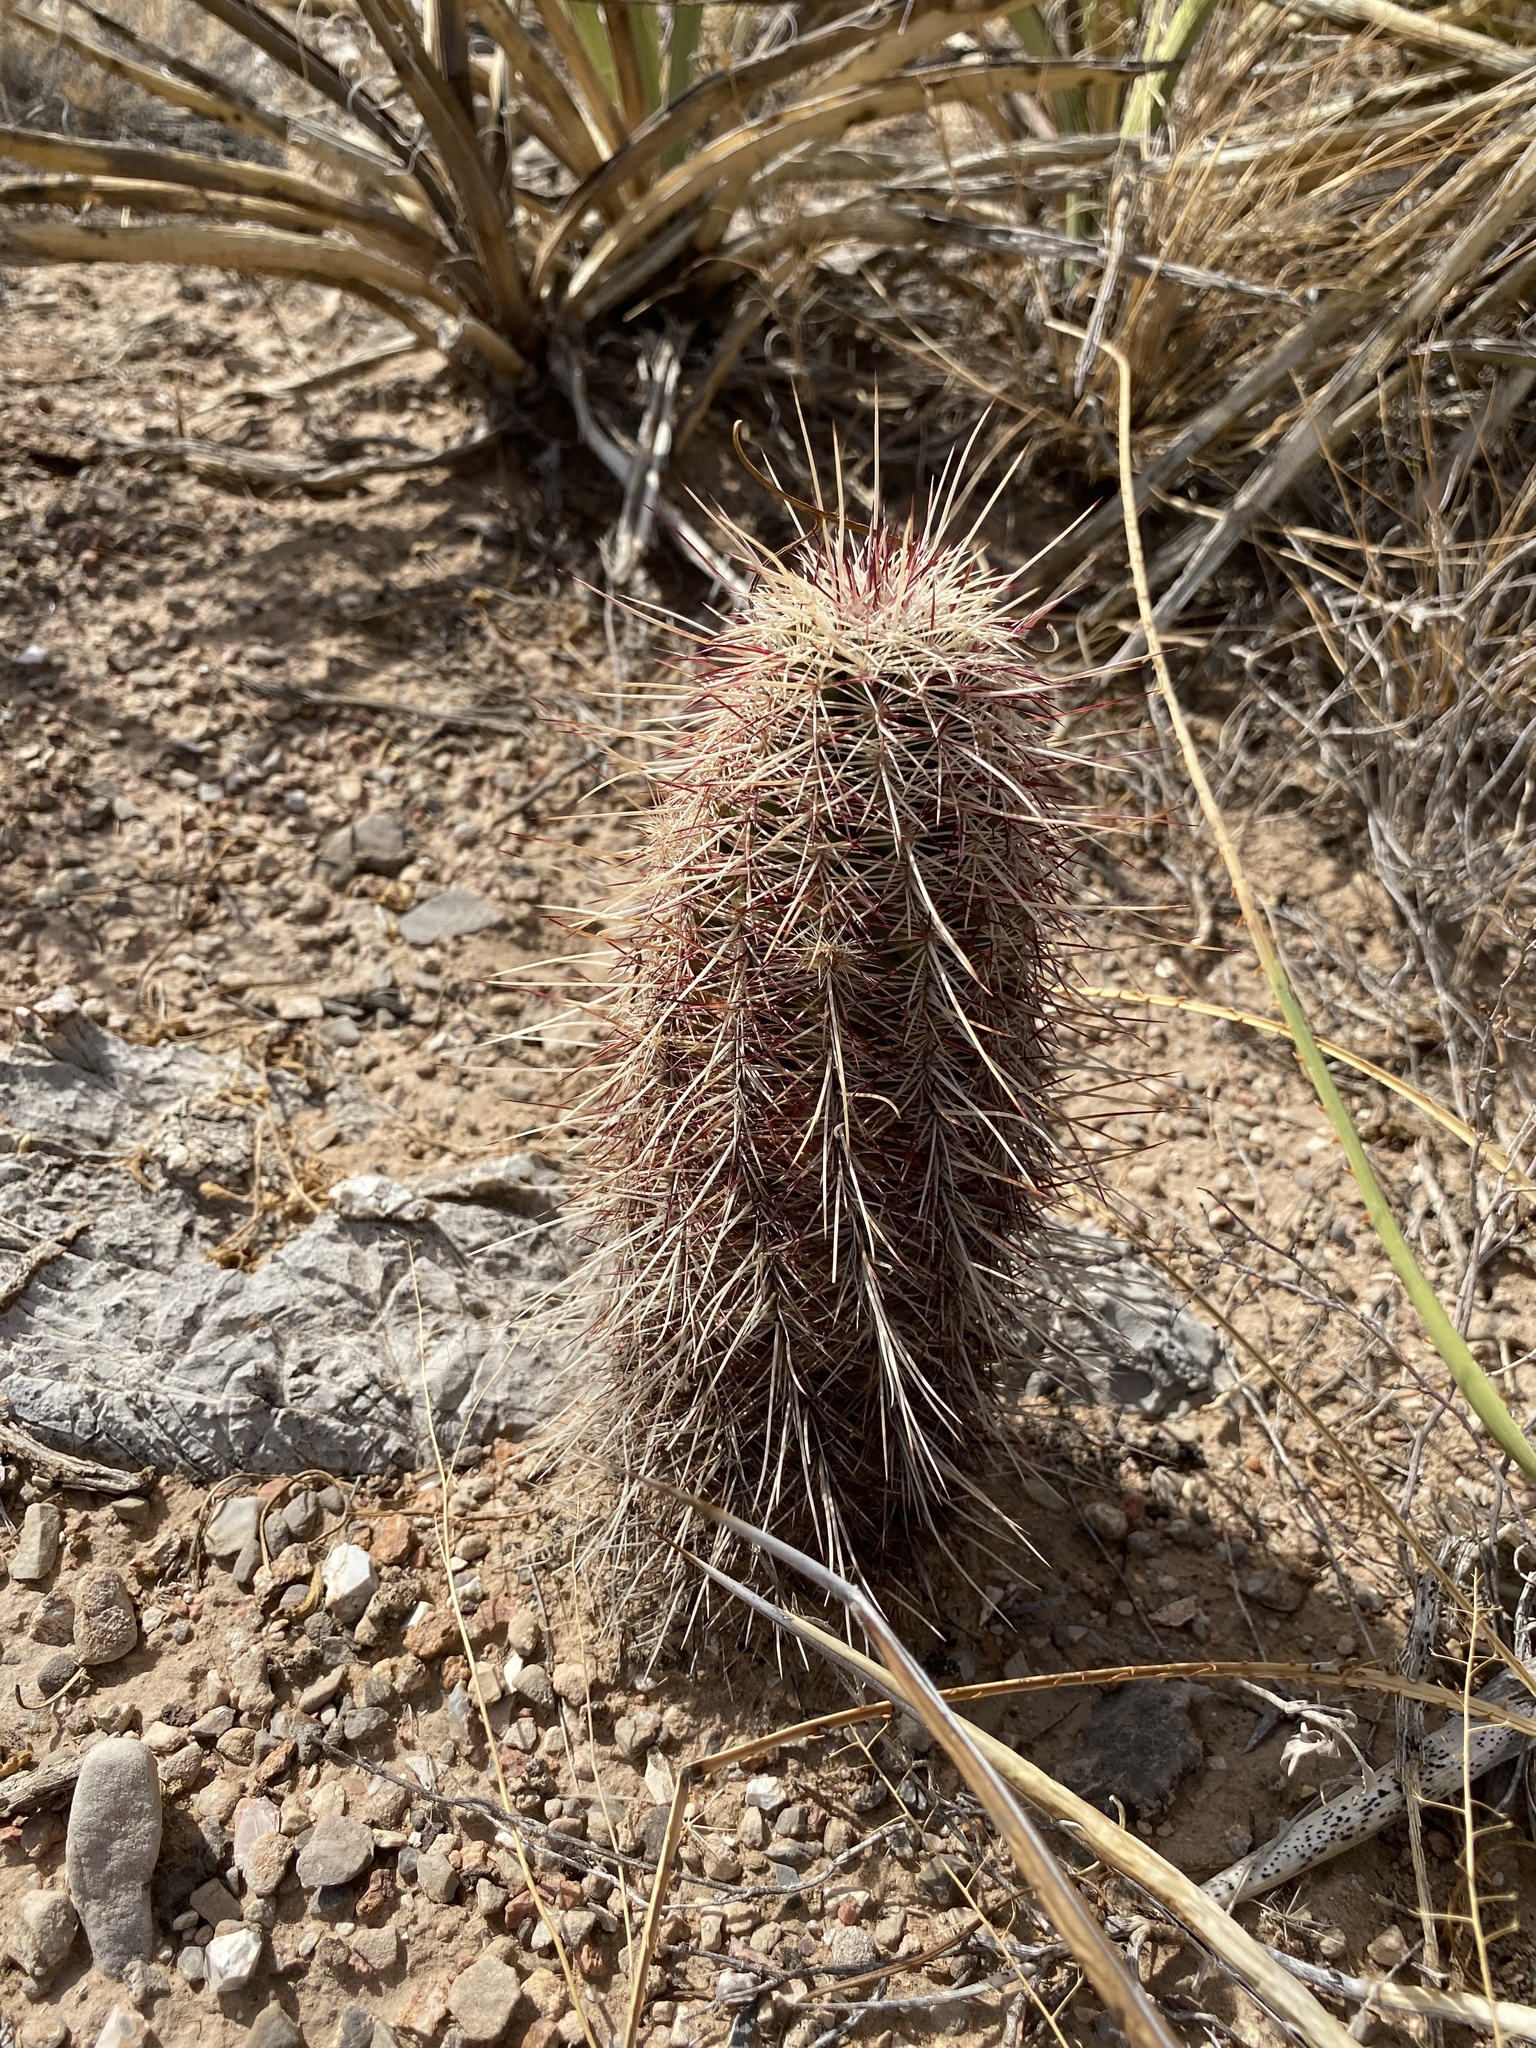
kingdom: Plantae
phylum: Tracheophyta
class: Magnoliopsida
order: Caryophyllales
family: Cactaceae
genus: Echinocereus
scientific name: Echinocereus viridiflorus
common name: Nylon hedgehog cactus
